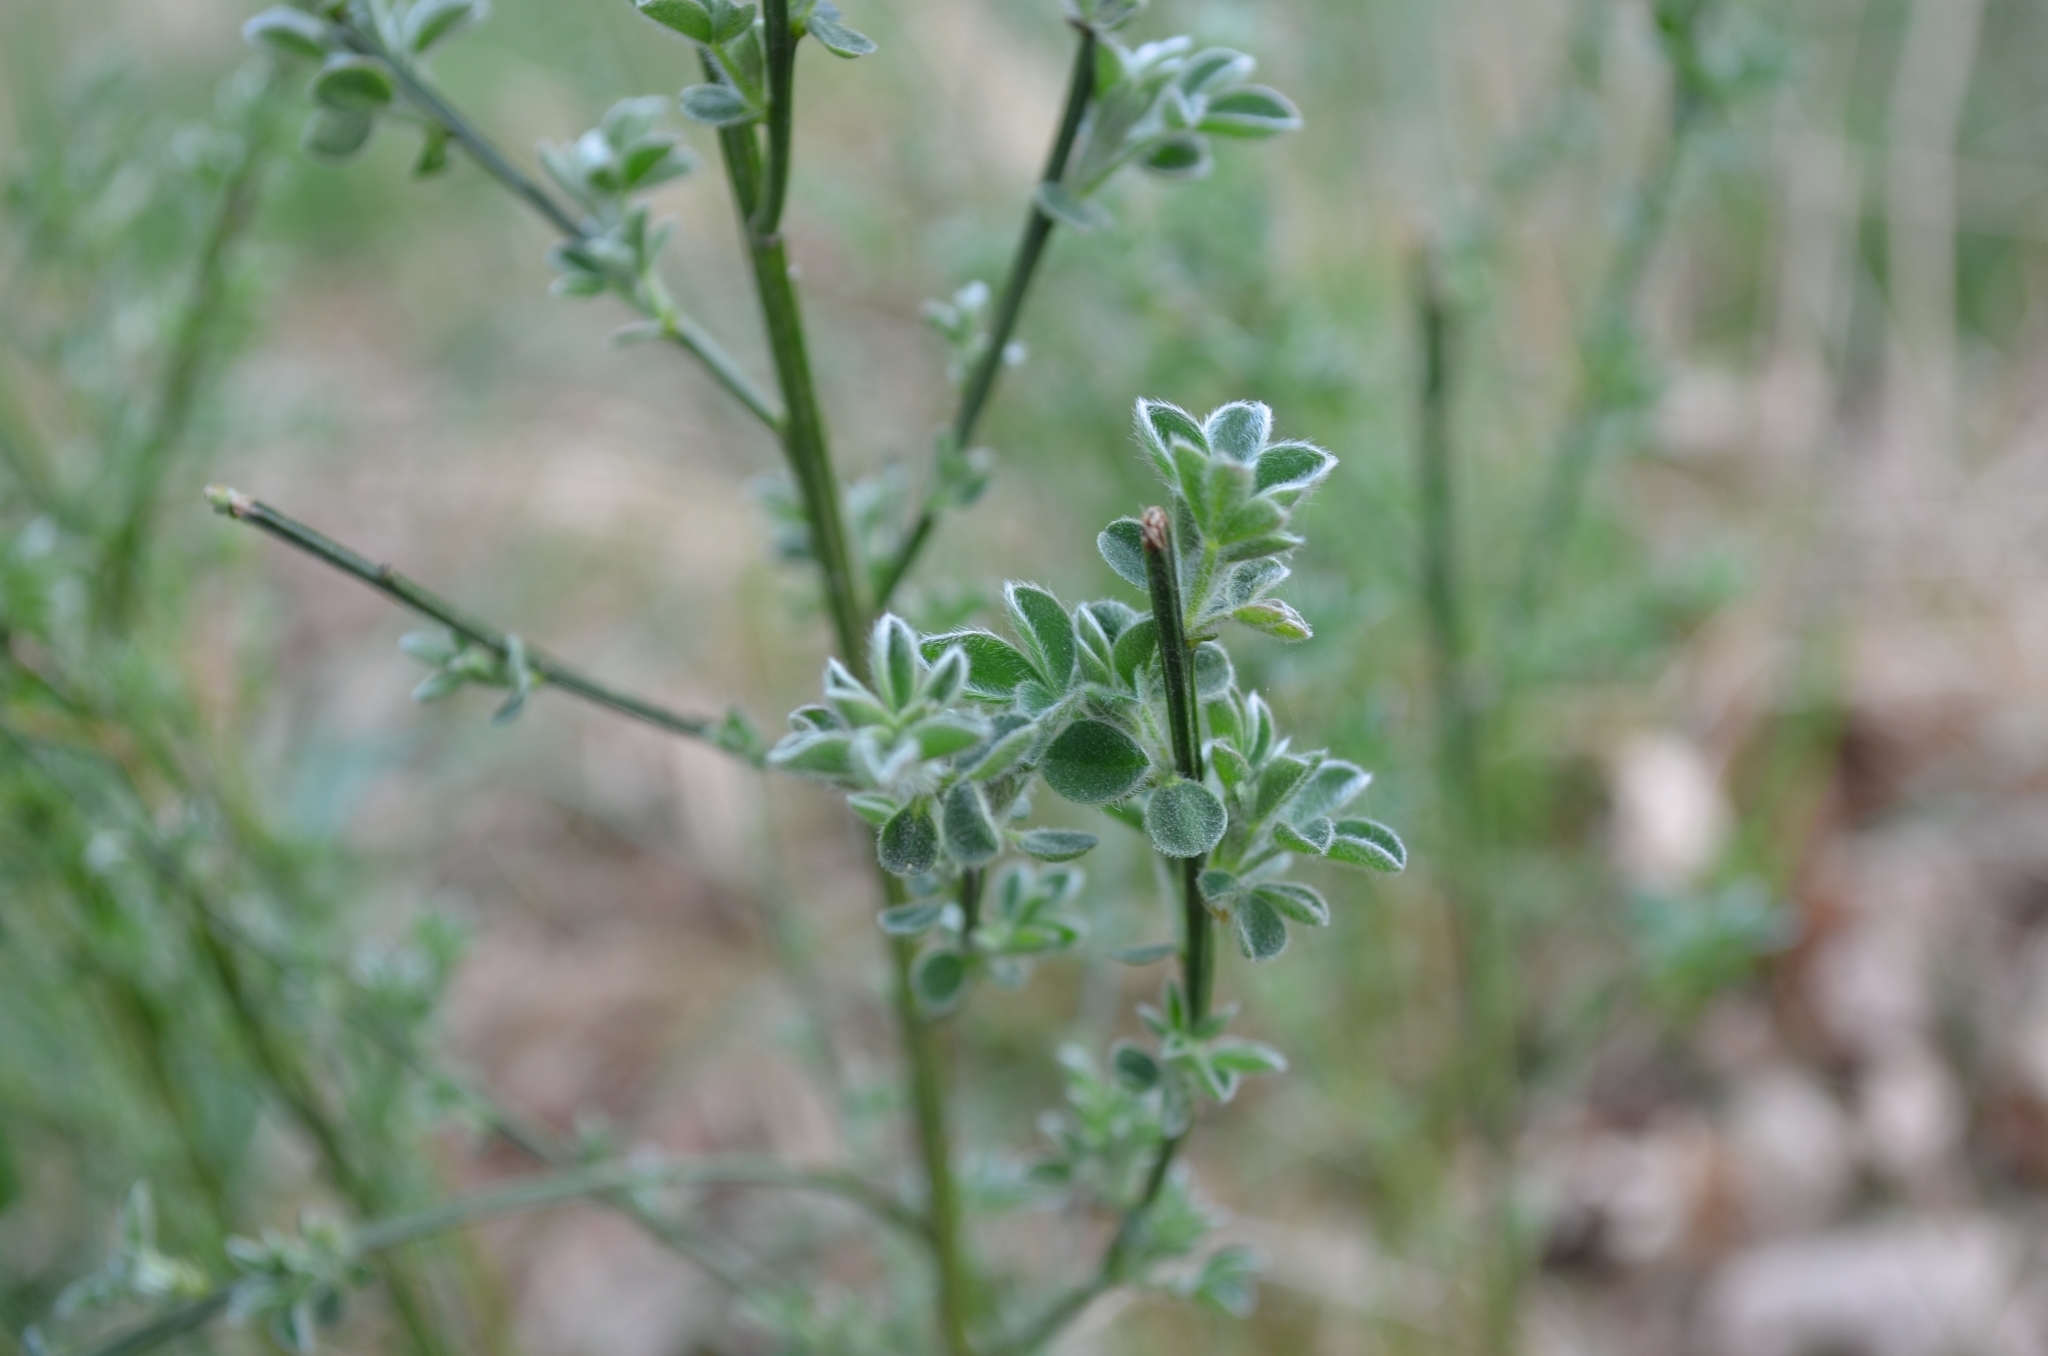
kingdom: Plantae
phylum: Tracheophyta
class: Magnoliopsida
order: Fabales
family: Fabaceae
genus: Cytisus
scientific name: Cytisus scoparius
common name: Scotch broom
